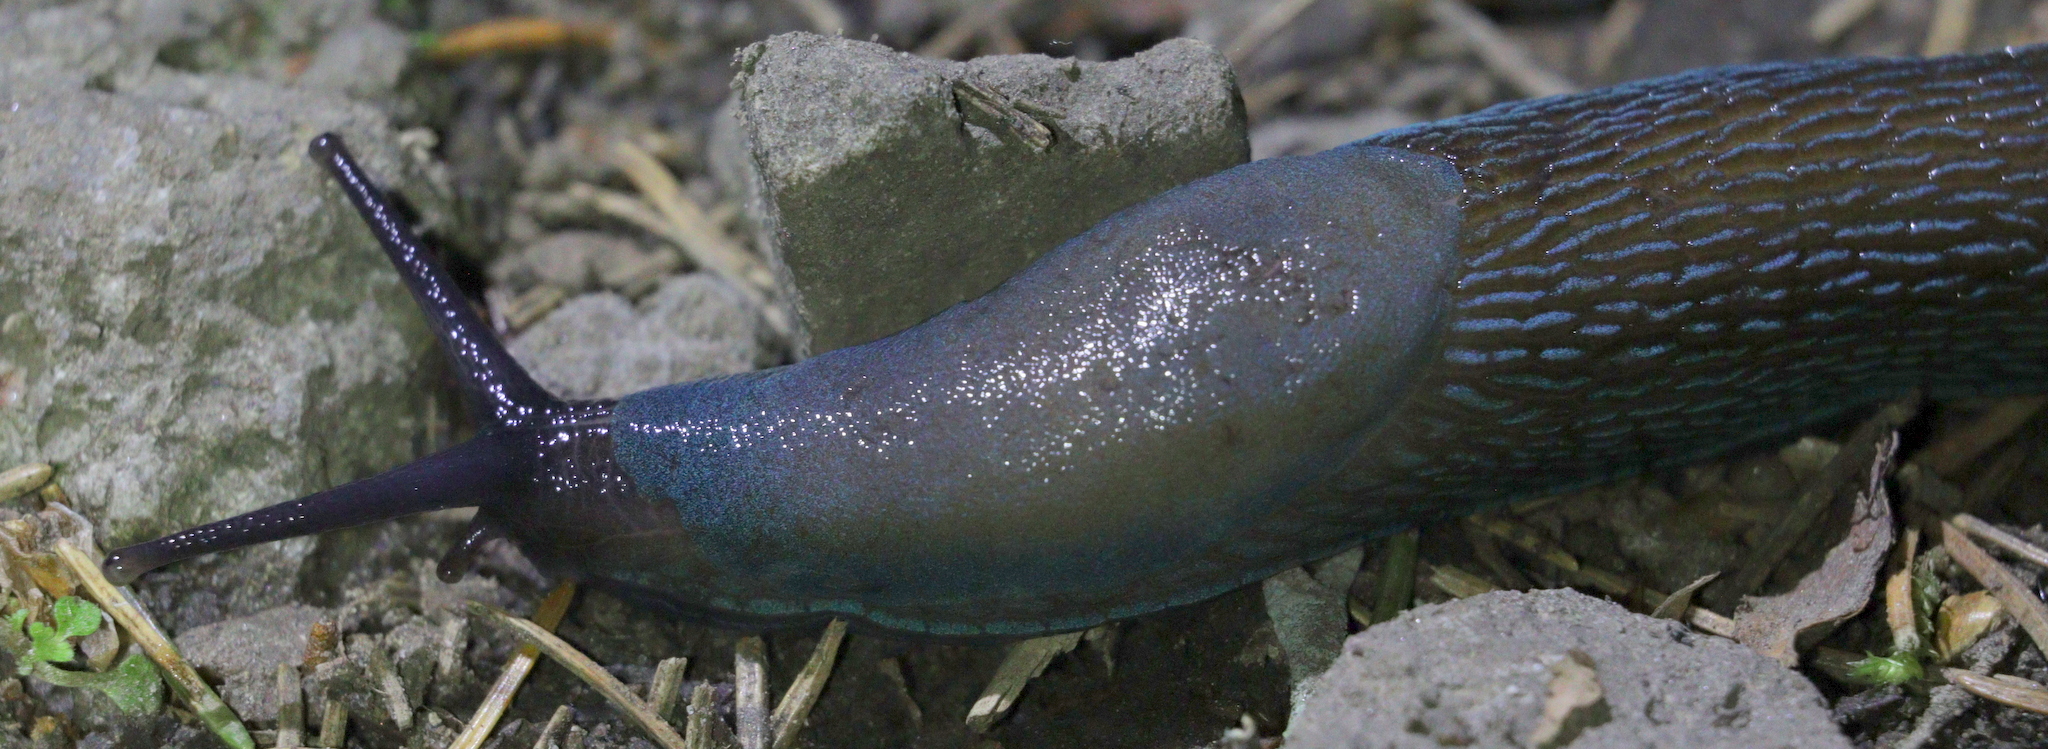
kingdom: Animalia
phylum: Mollusca
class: Gastropoda
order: Stylommatophora
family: Limacidae
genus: Bielzia
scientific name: Bielzia coerulans
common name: Carpathian blue slug
